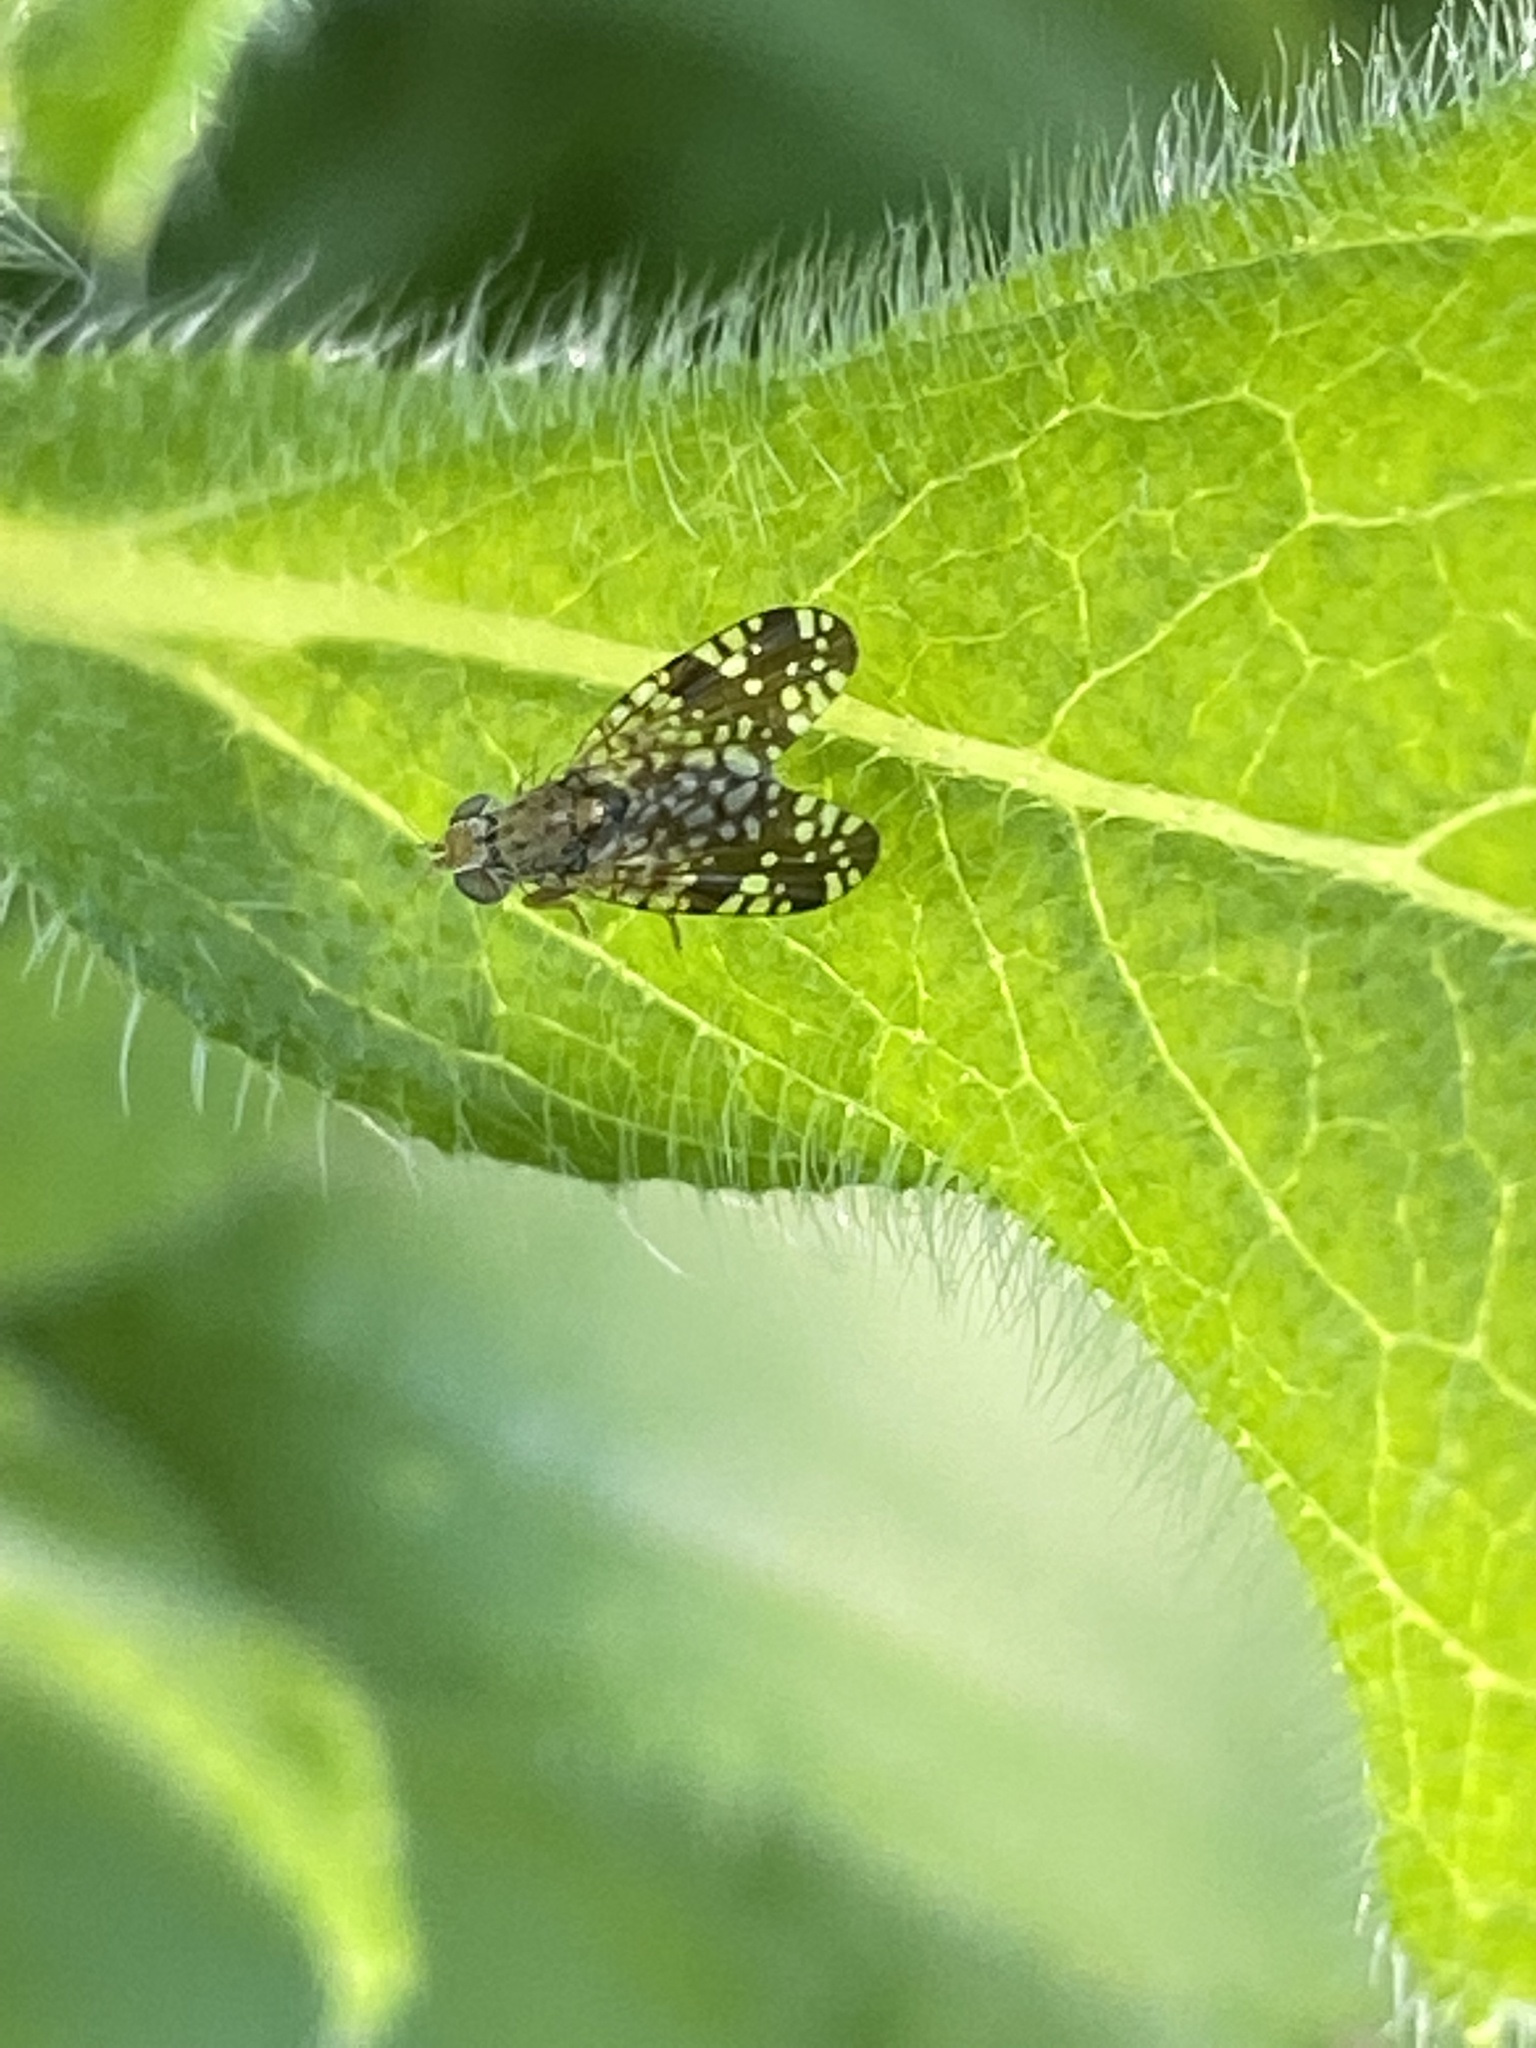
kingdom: Animalia
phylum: Arthropoda
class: Insecta
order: Diptera
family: Tephritidae
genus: Neotephritis
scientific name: Neotephritis finalis
